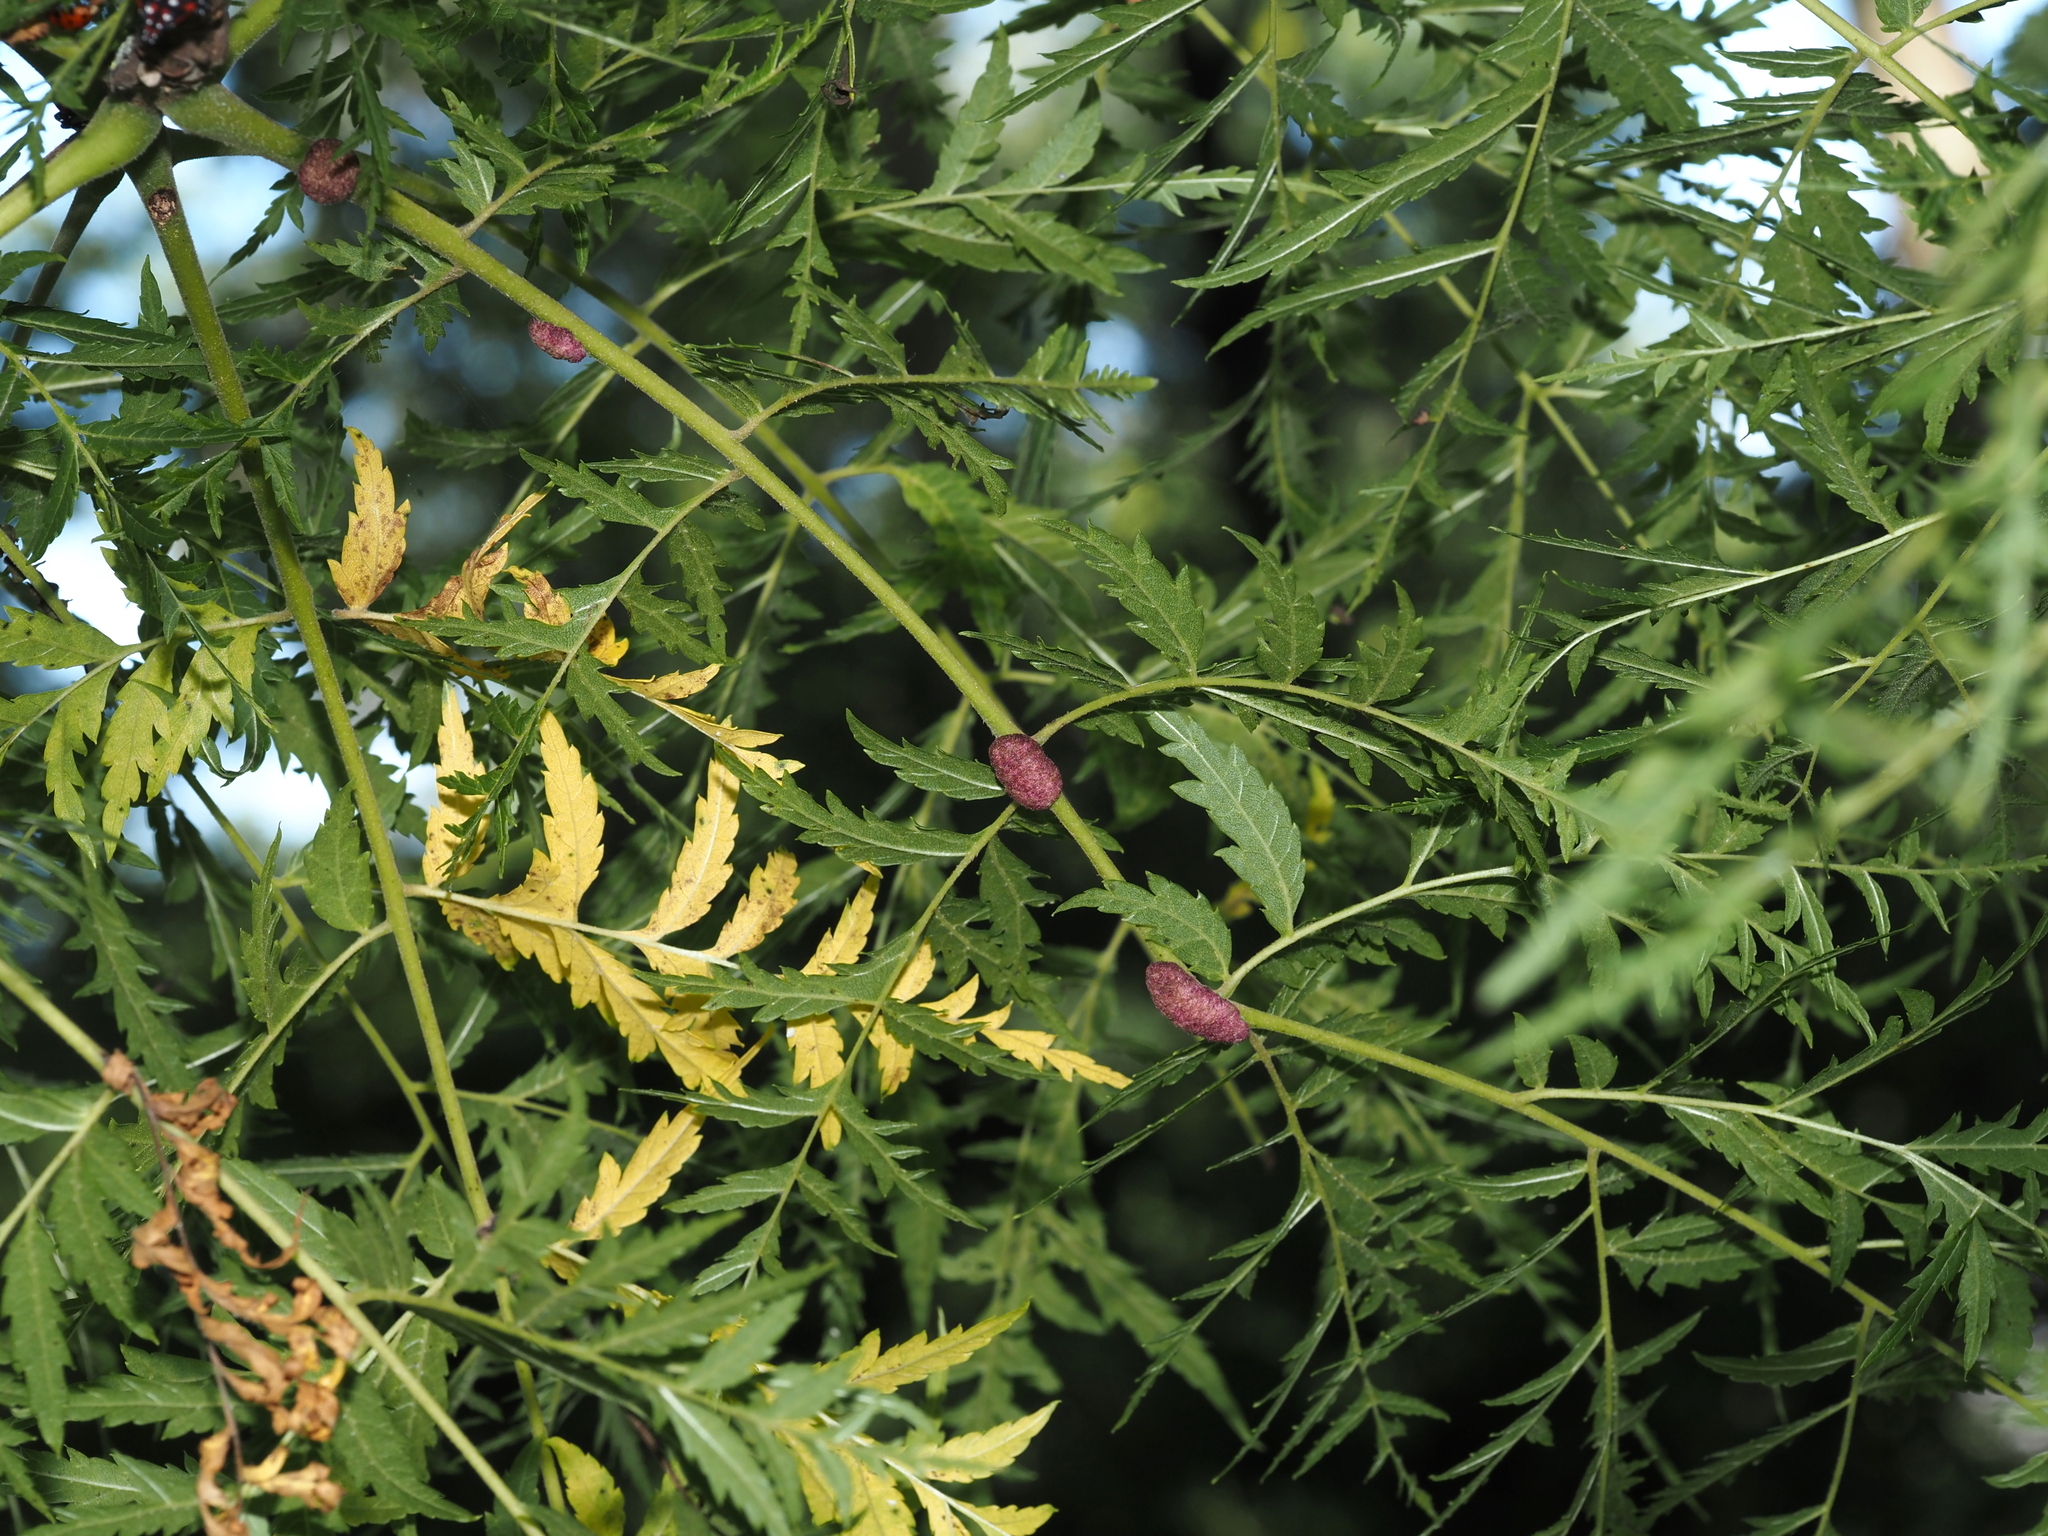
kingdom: Animalia
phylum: Arthropoda
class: Arachnida
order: Trombidiformes
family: Eriophyidae
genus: Aceria
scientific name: Aceria
